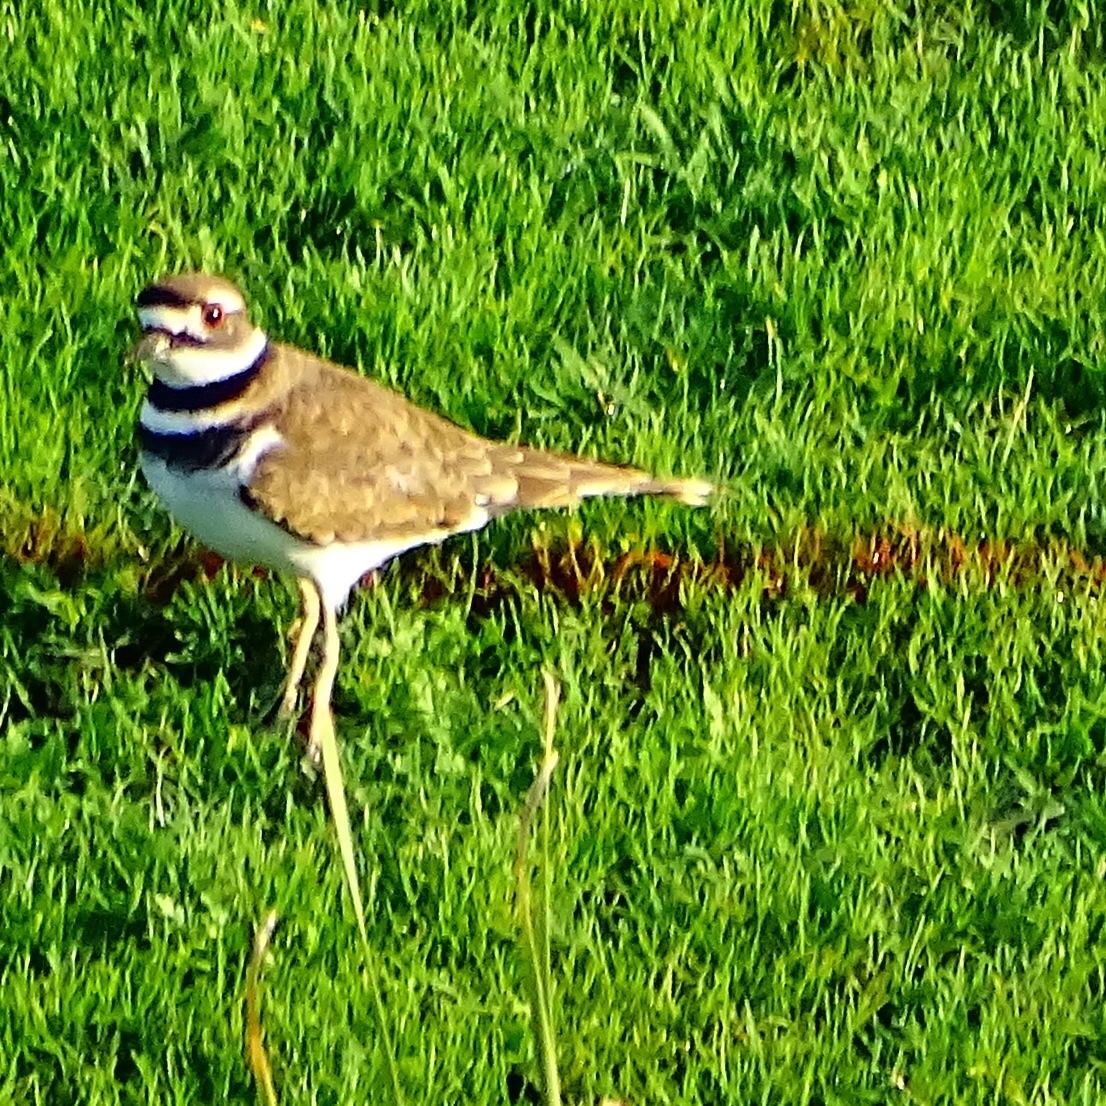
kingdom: Animalia
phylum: Chordata
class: Aves
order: Charadriiformes
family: Charadriidae
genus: Charadrius
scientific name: Charadrius vociferus
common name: Killdeer
